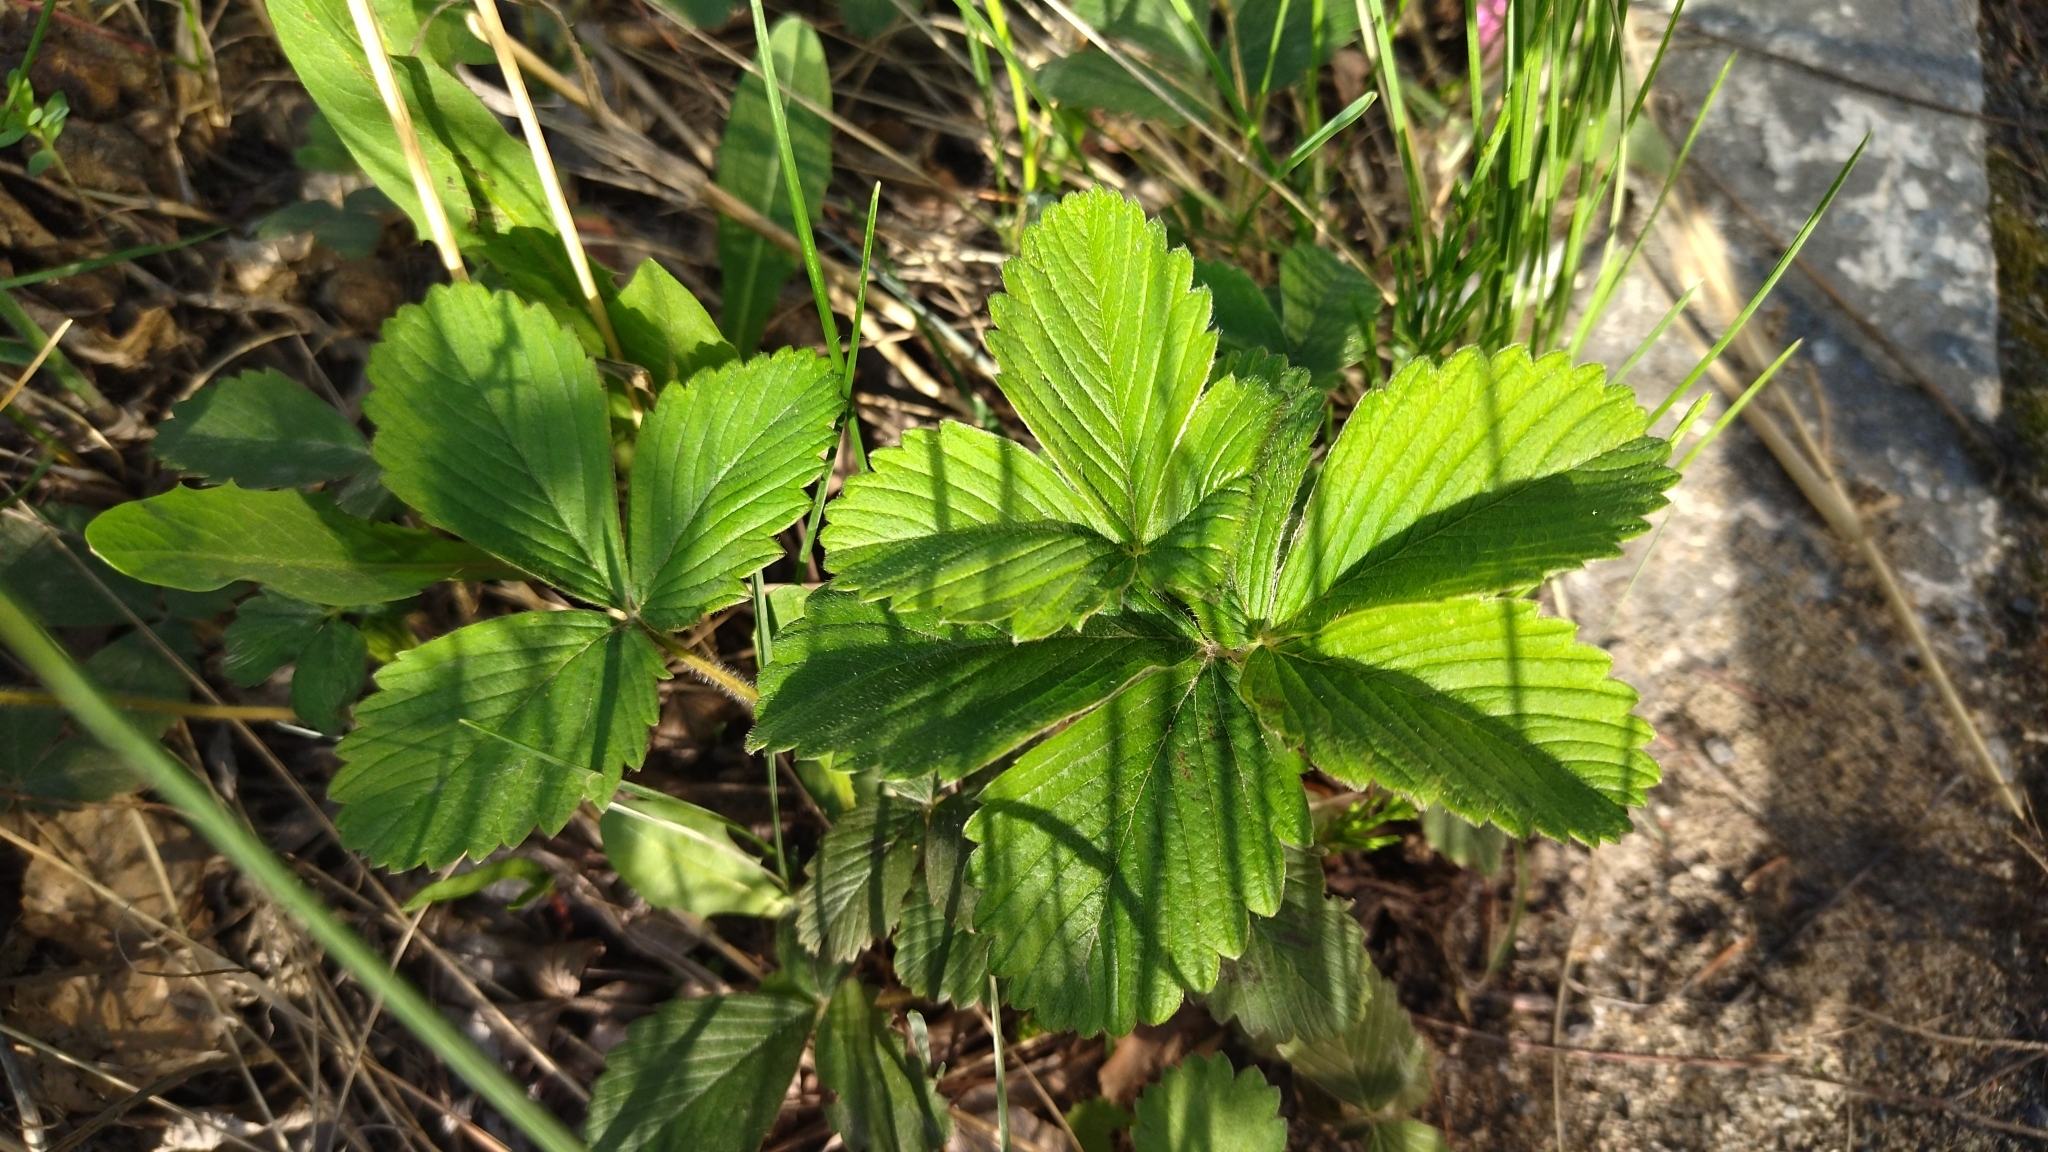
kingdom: Plantae
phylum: Tracheophyta
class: Magnoliopsida
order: Rosales
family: Rosaceae
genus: Fragaria
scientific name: Fragaria viridis
